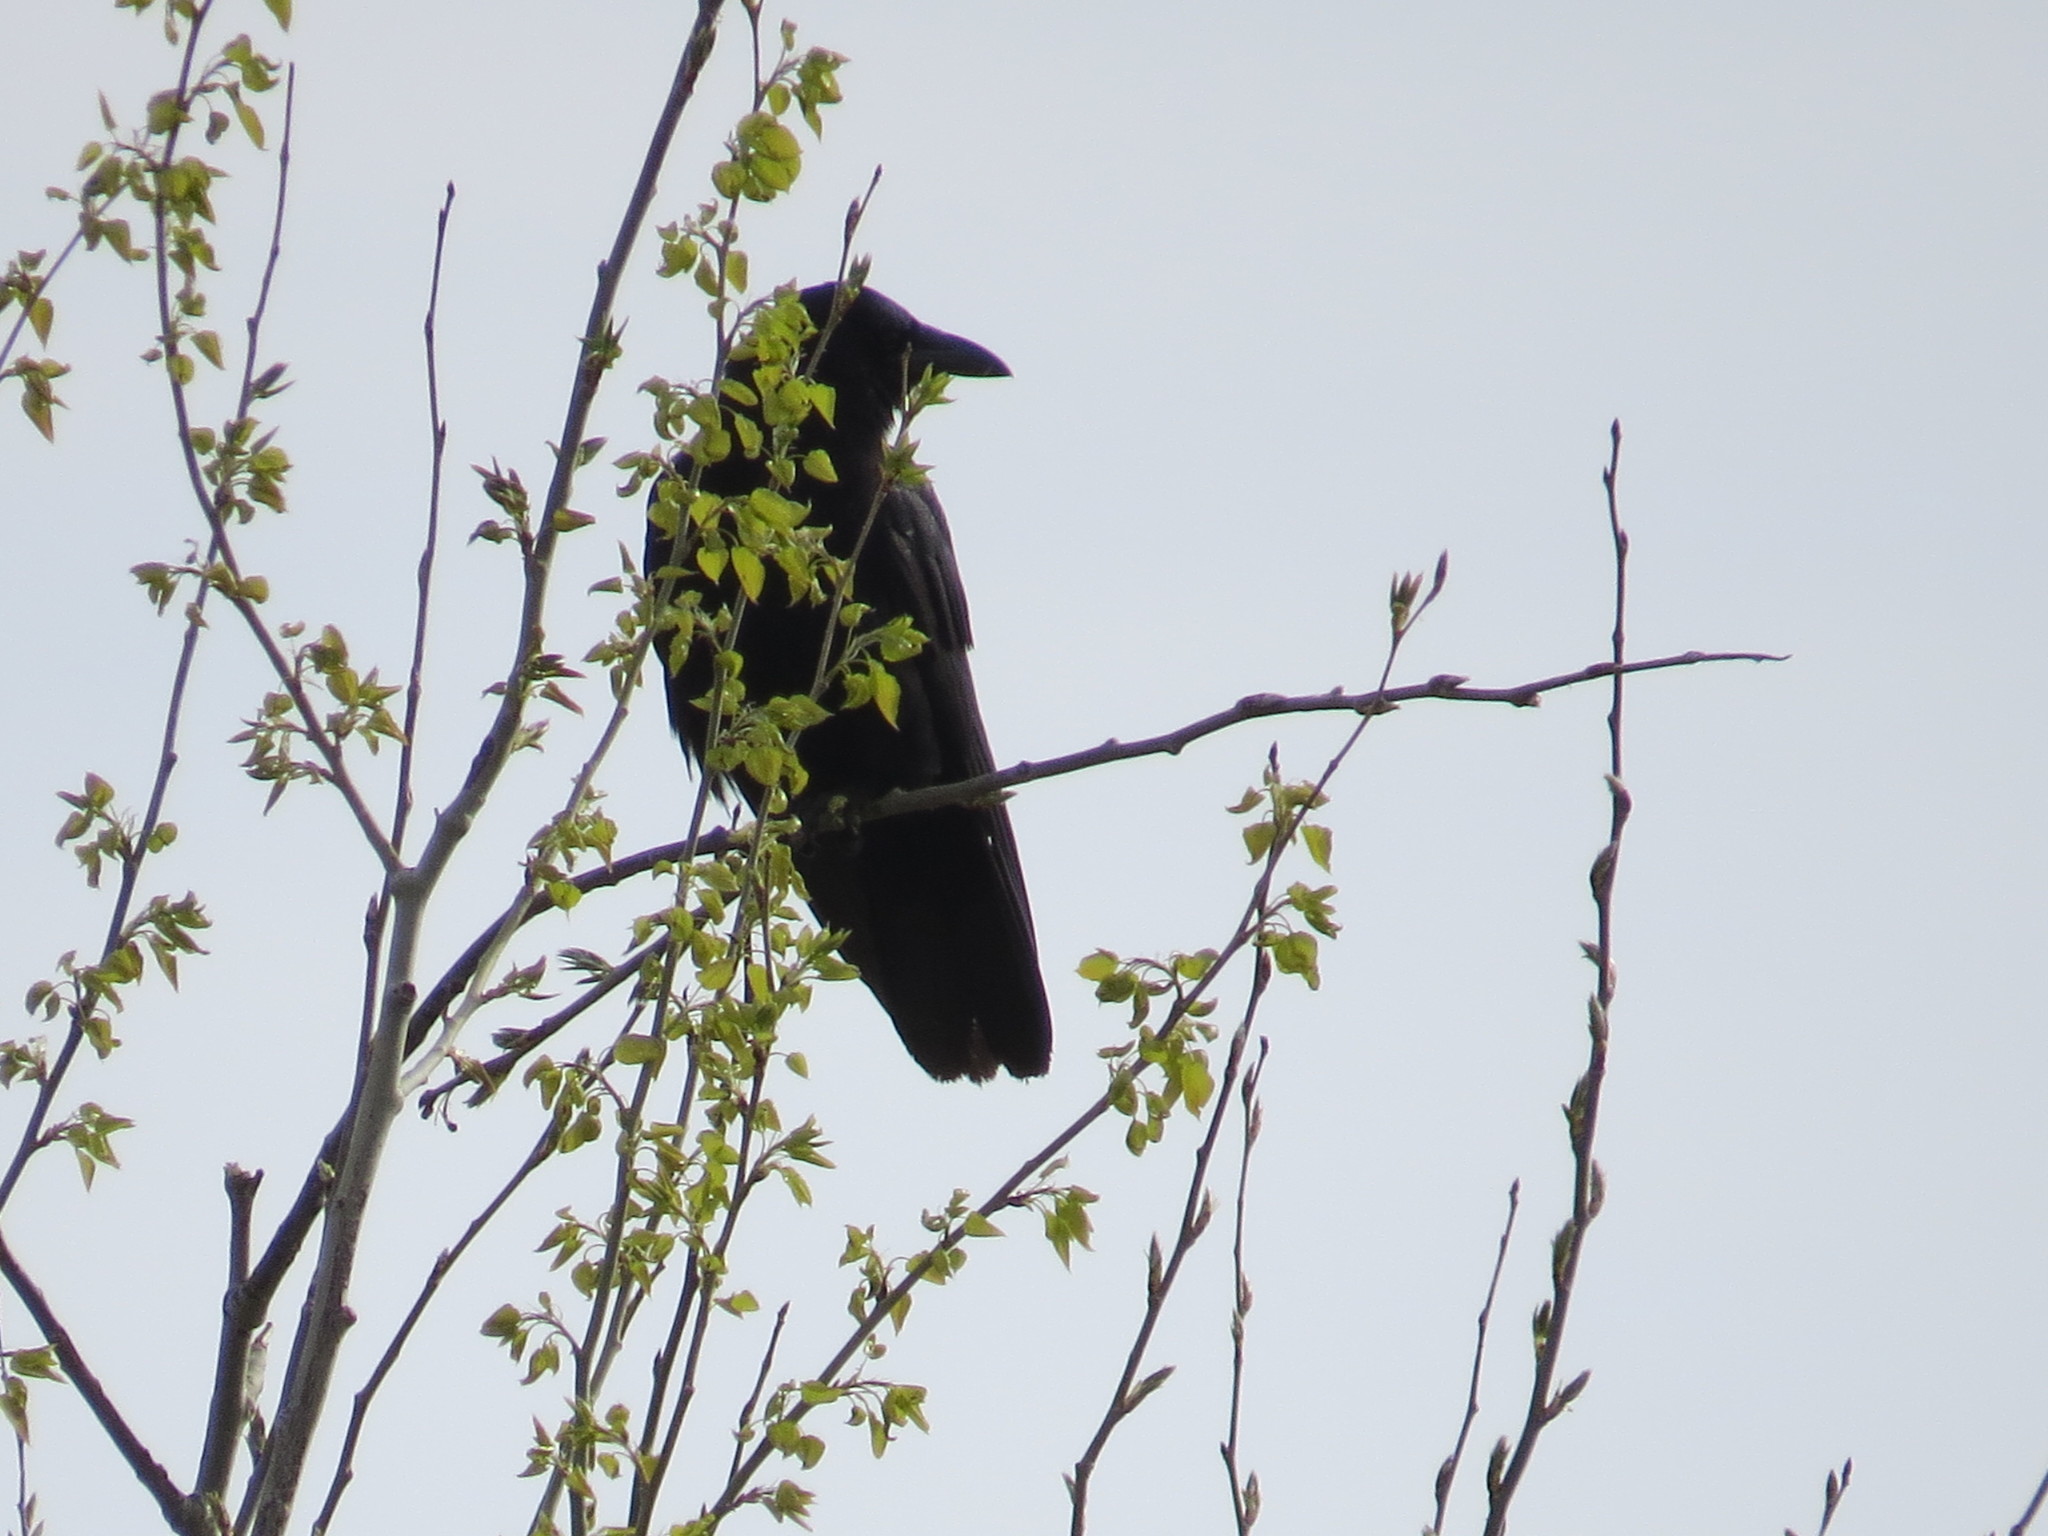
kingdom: Animalia
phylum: Chordata
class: Aves
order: Passeriformes
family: Corvidae
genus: Corvus
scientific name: Corvus brachyrhynchos
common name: American crow
